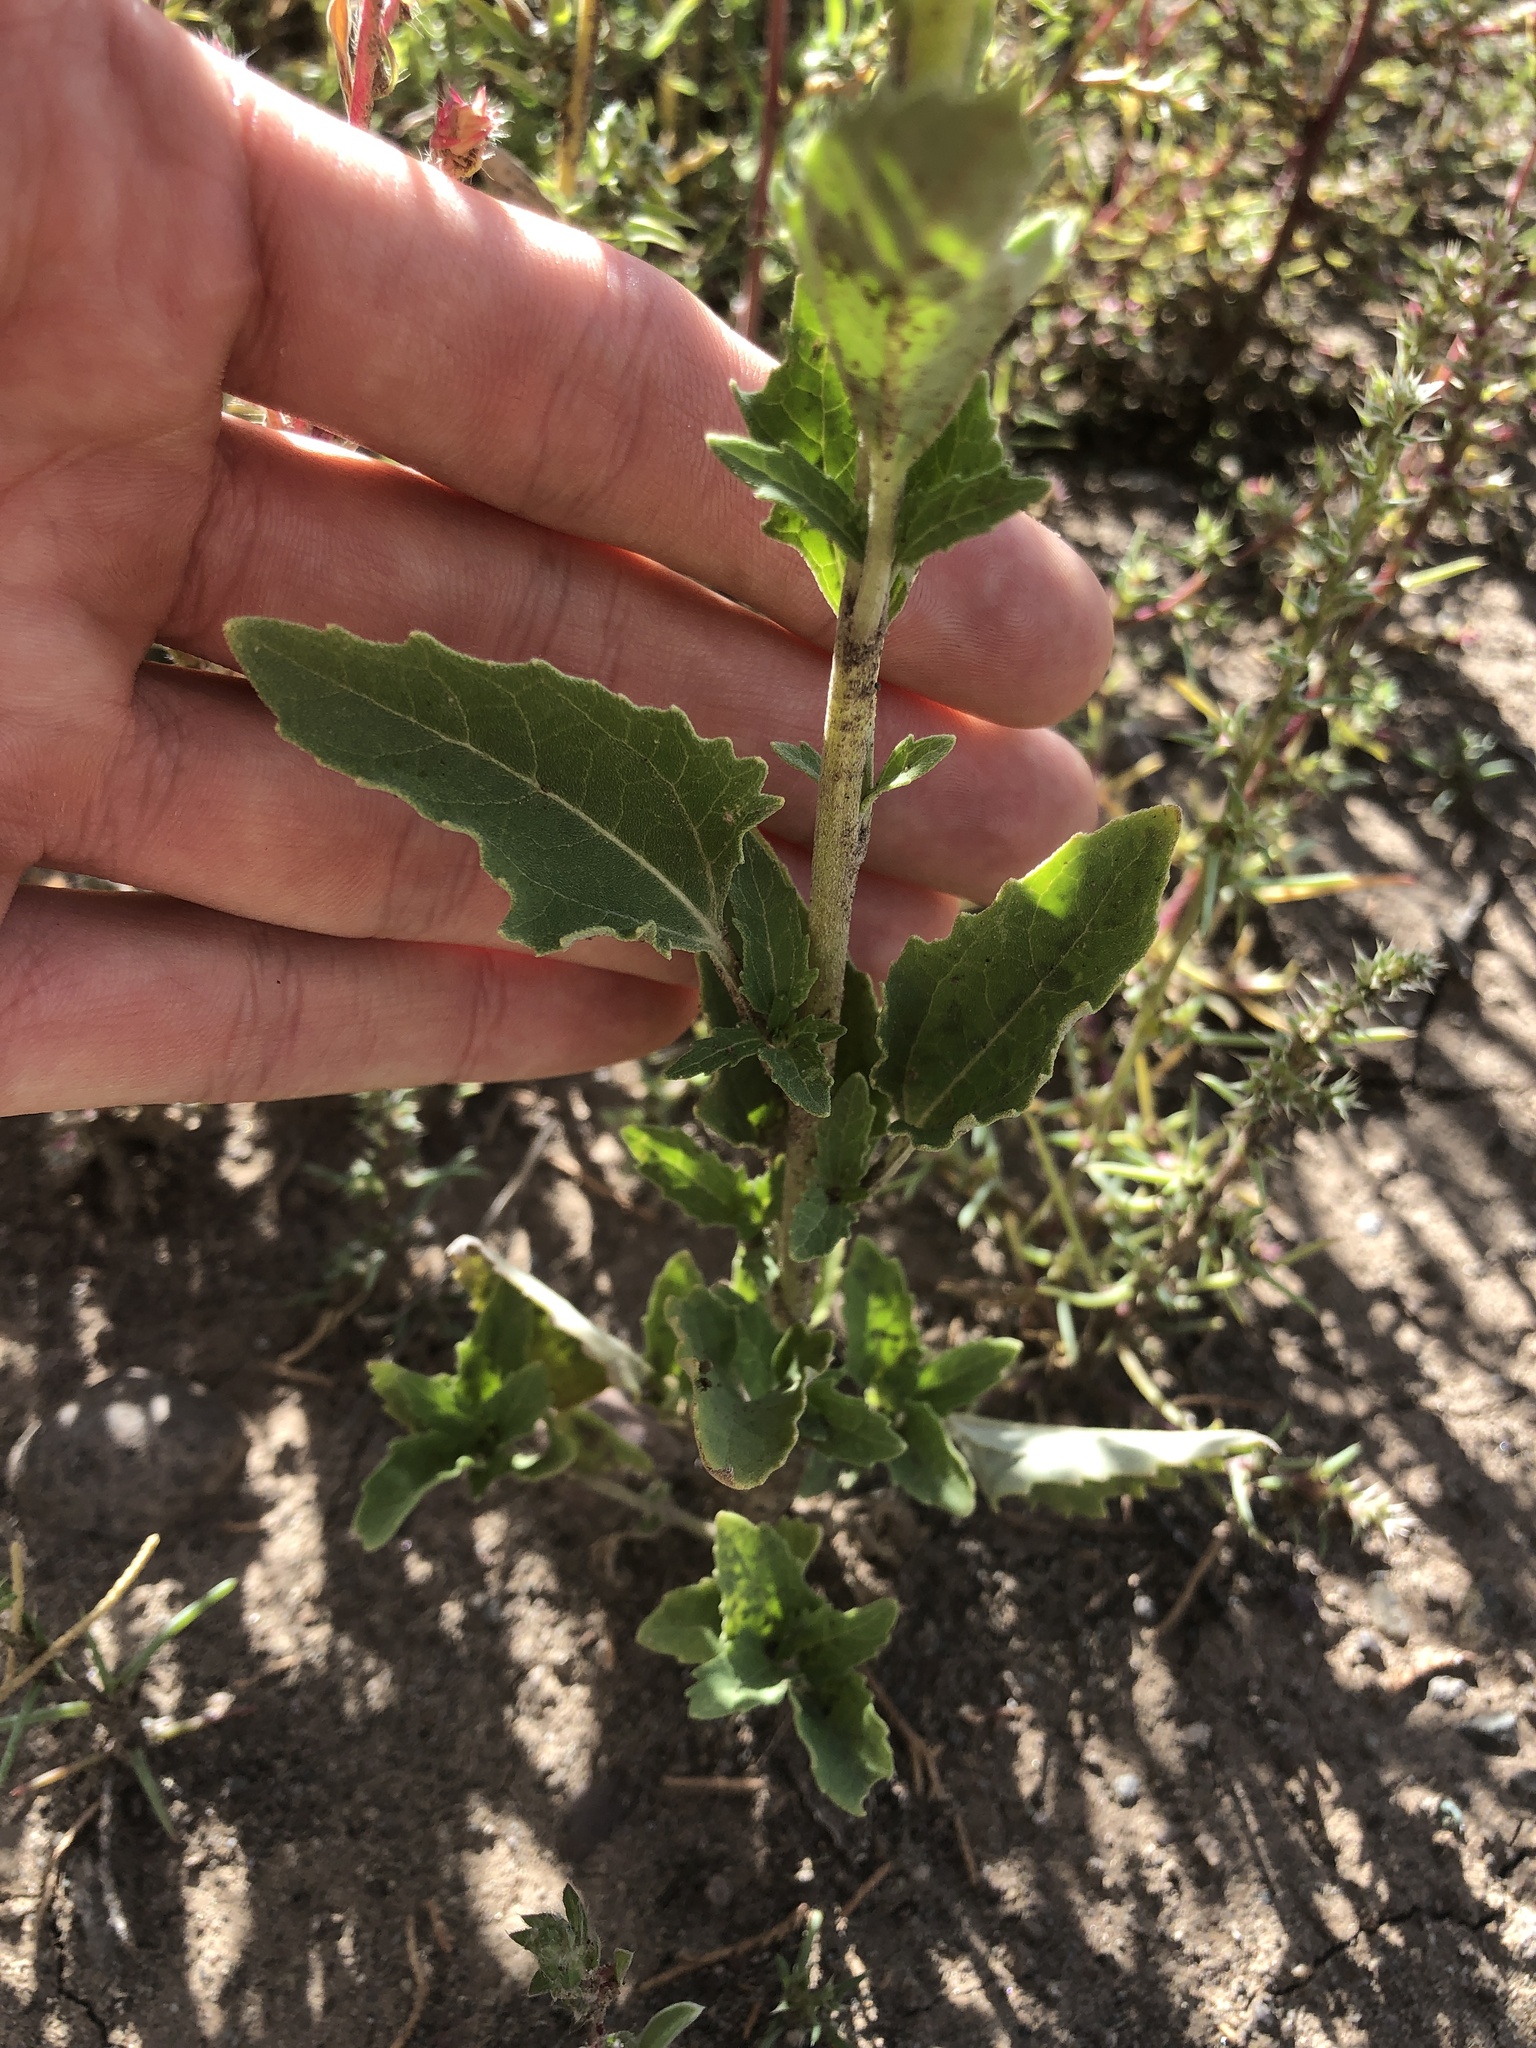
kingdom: Plantae
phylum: Tracheophyta
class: Magnoliopsida
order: Asterales
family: Asteraceae
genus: Verbesina
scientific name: Verbesina encelioides
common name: Golden crownbeard
